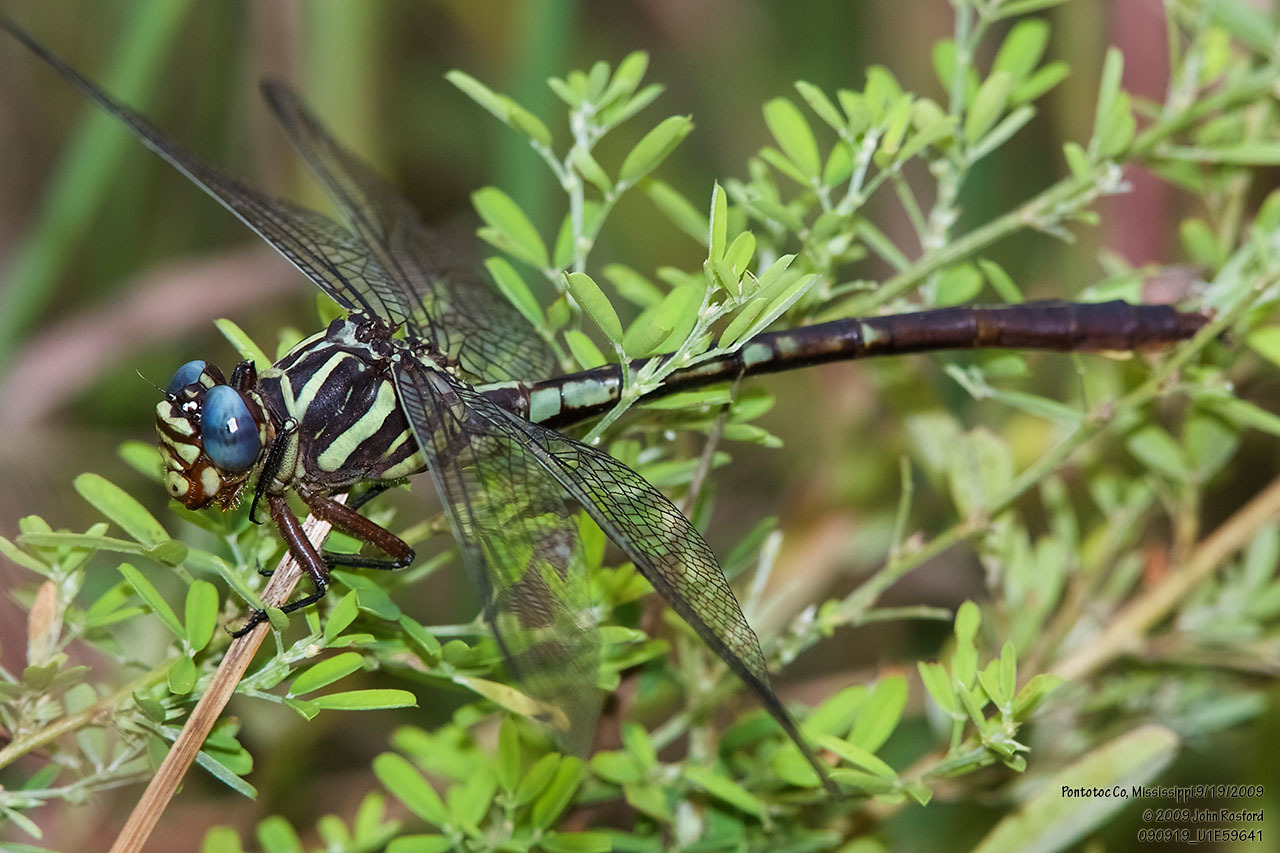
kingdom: Animalia
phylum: Arthropoda
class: Insecta
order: Odonata
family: Gomphidae
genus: Aphylla
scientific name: Aphylla williamsoni
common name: Two-striped forceptail
